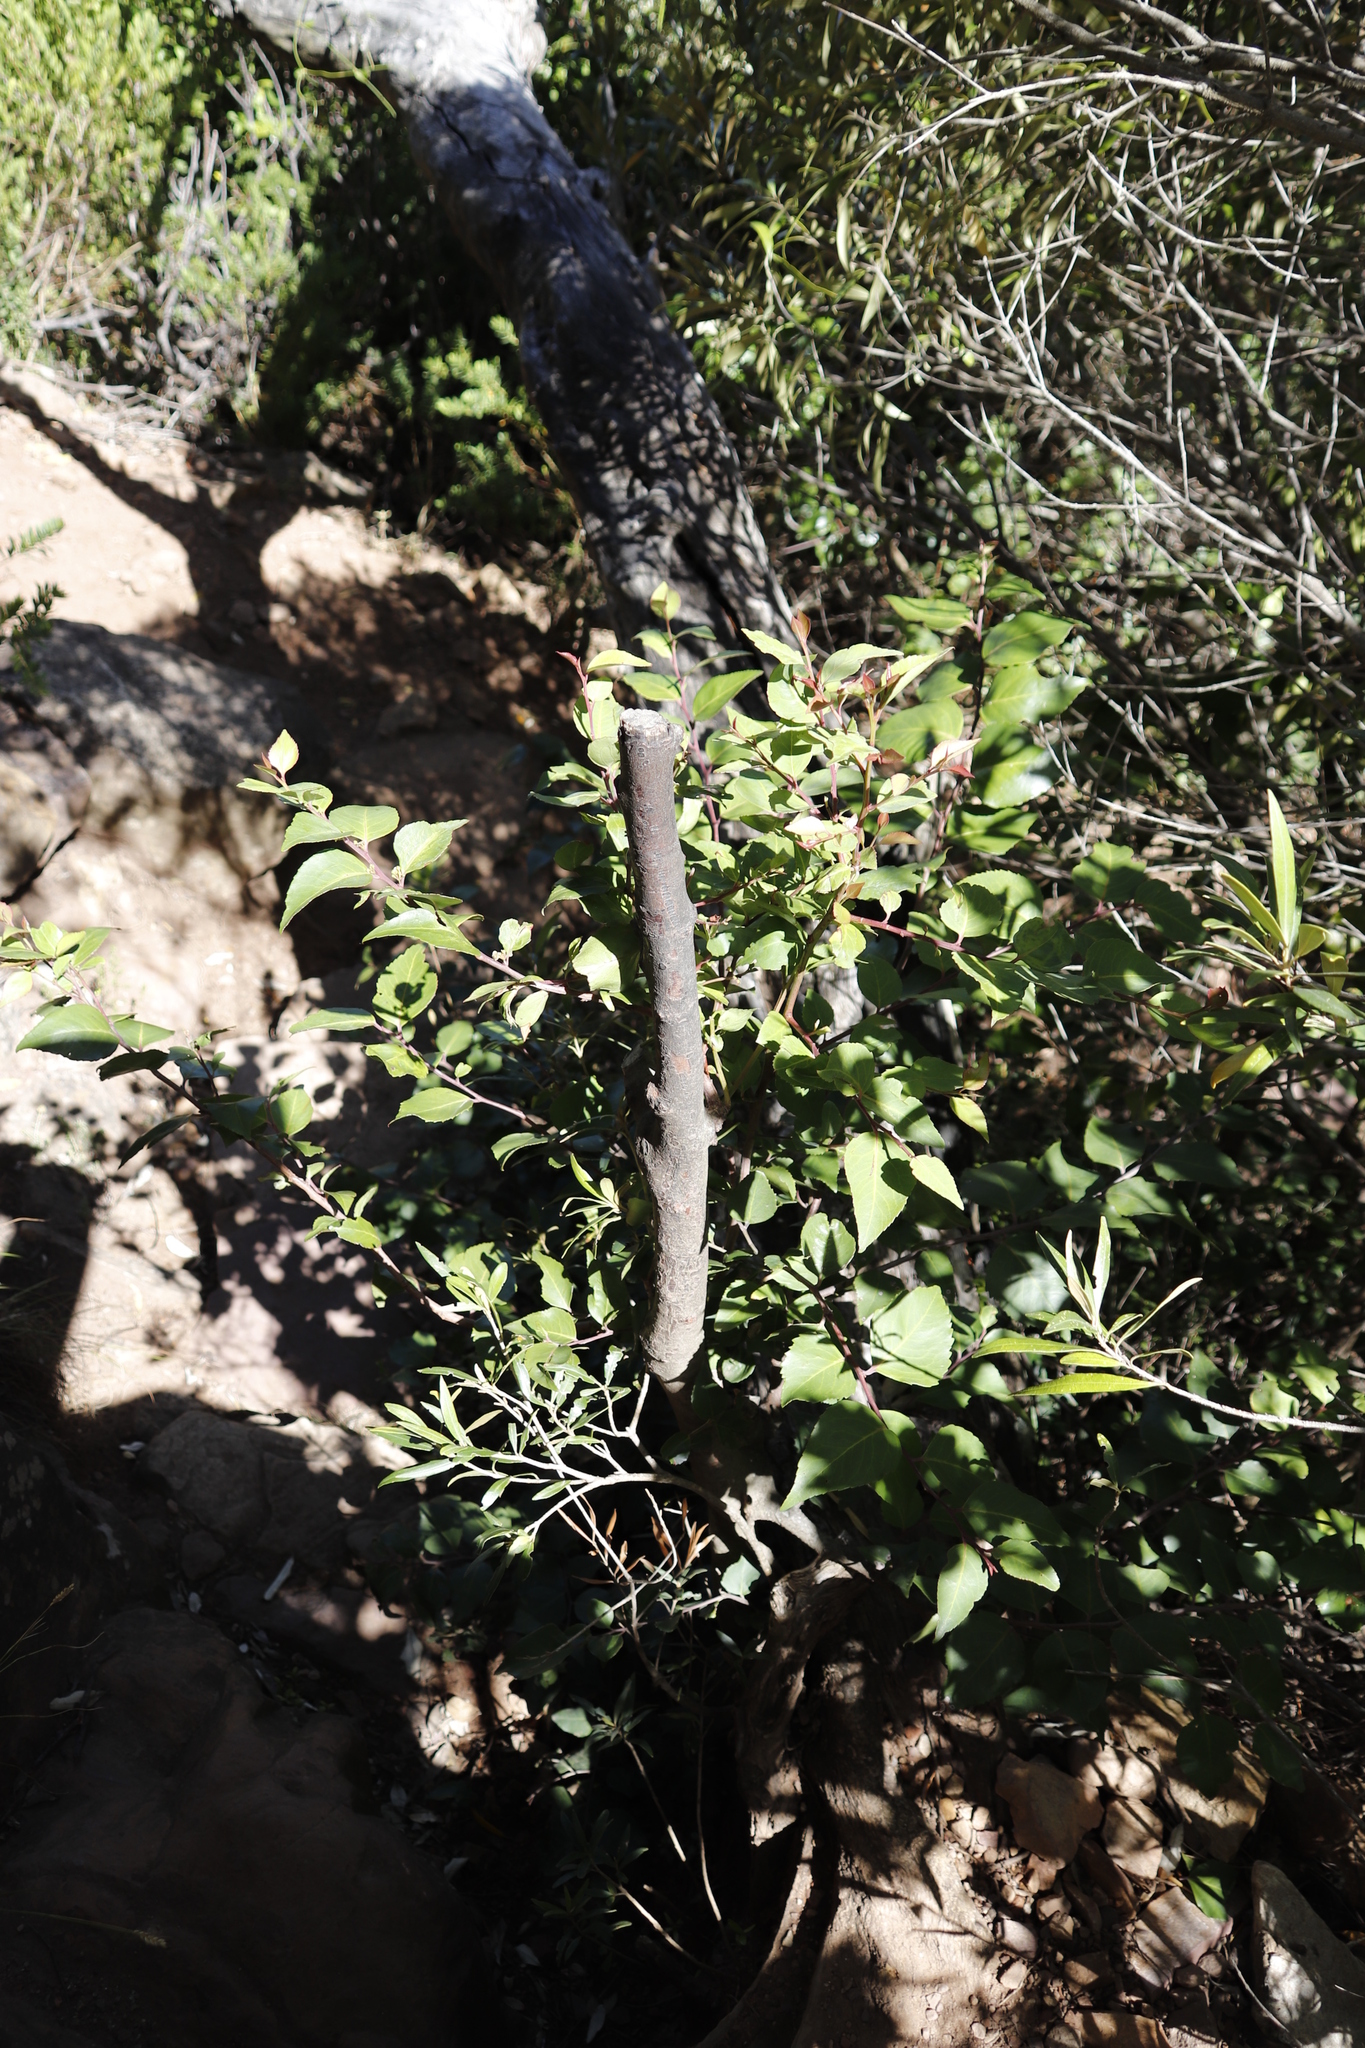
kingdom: Plantae
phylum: Tracheophyta
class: Magnoliopsida
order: Celastrales
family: Celastraceae
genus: Gymnosporia
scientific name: Gymnosporia acuminata
